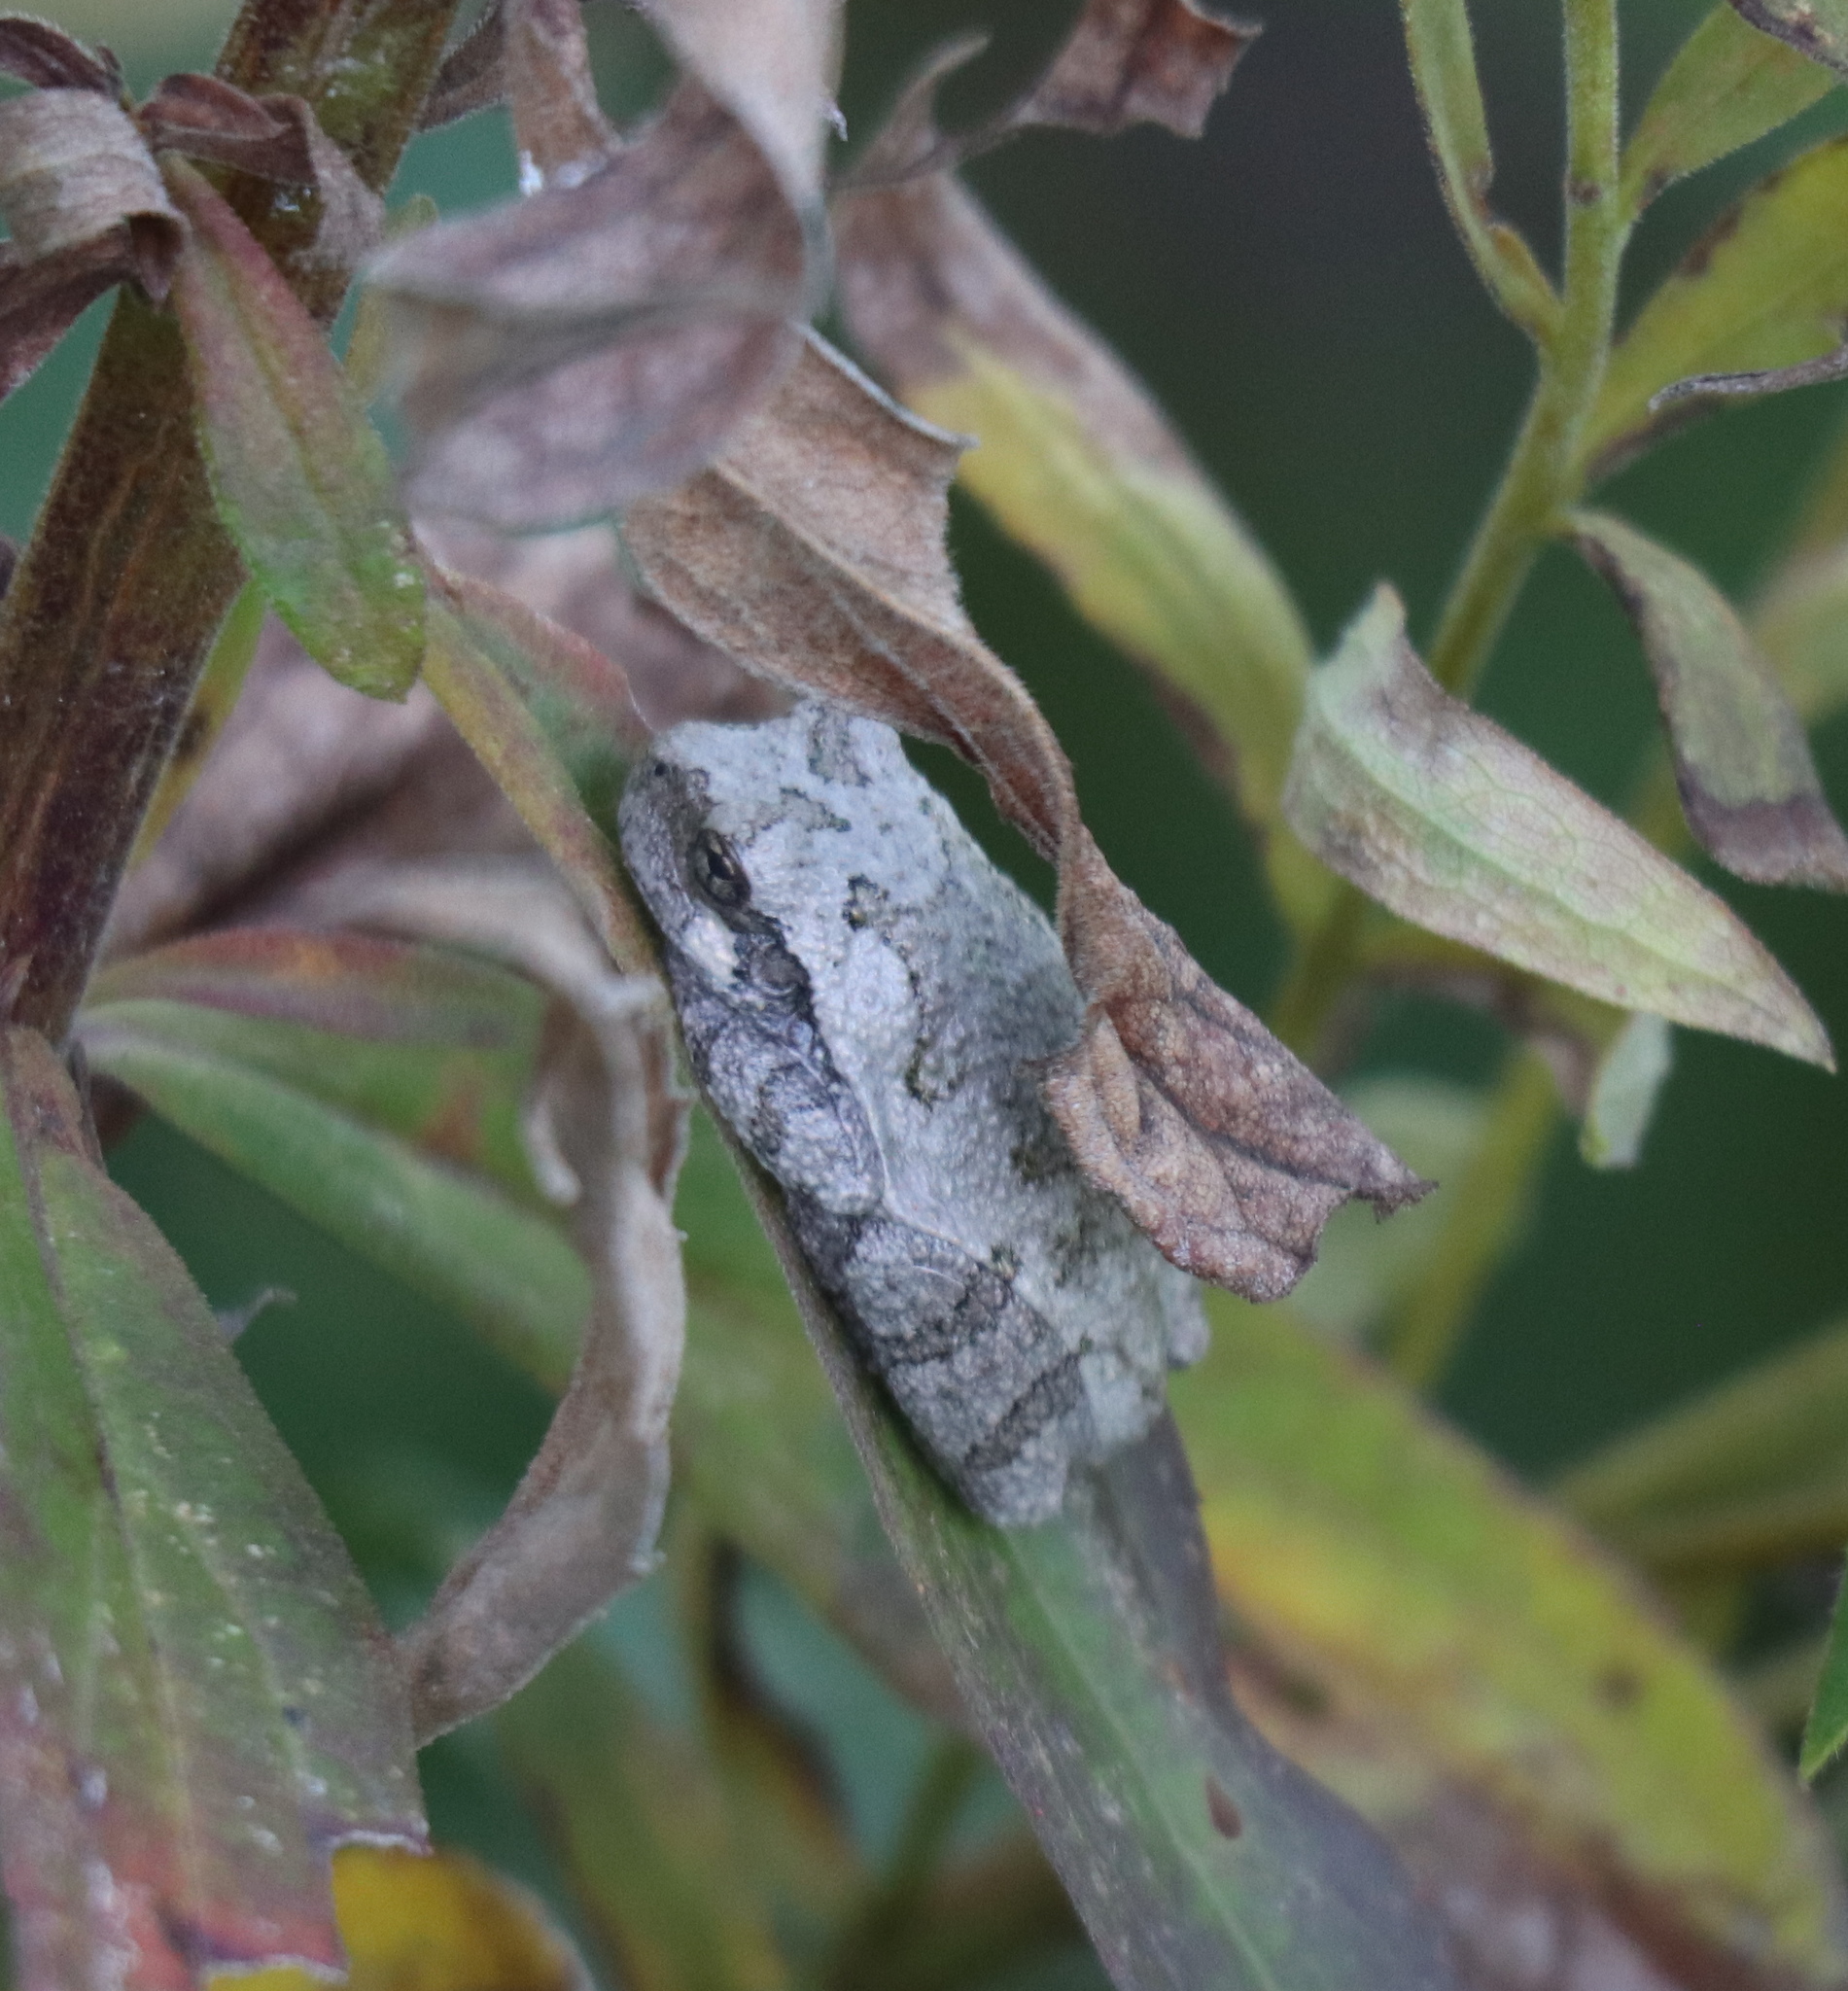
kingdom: Animalia
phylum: Chordata
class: Amphibia
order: Anura
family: Hylidae
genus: Hyla
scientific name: Hyla
